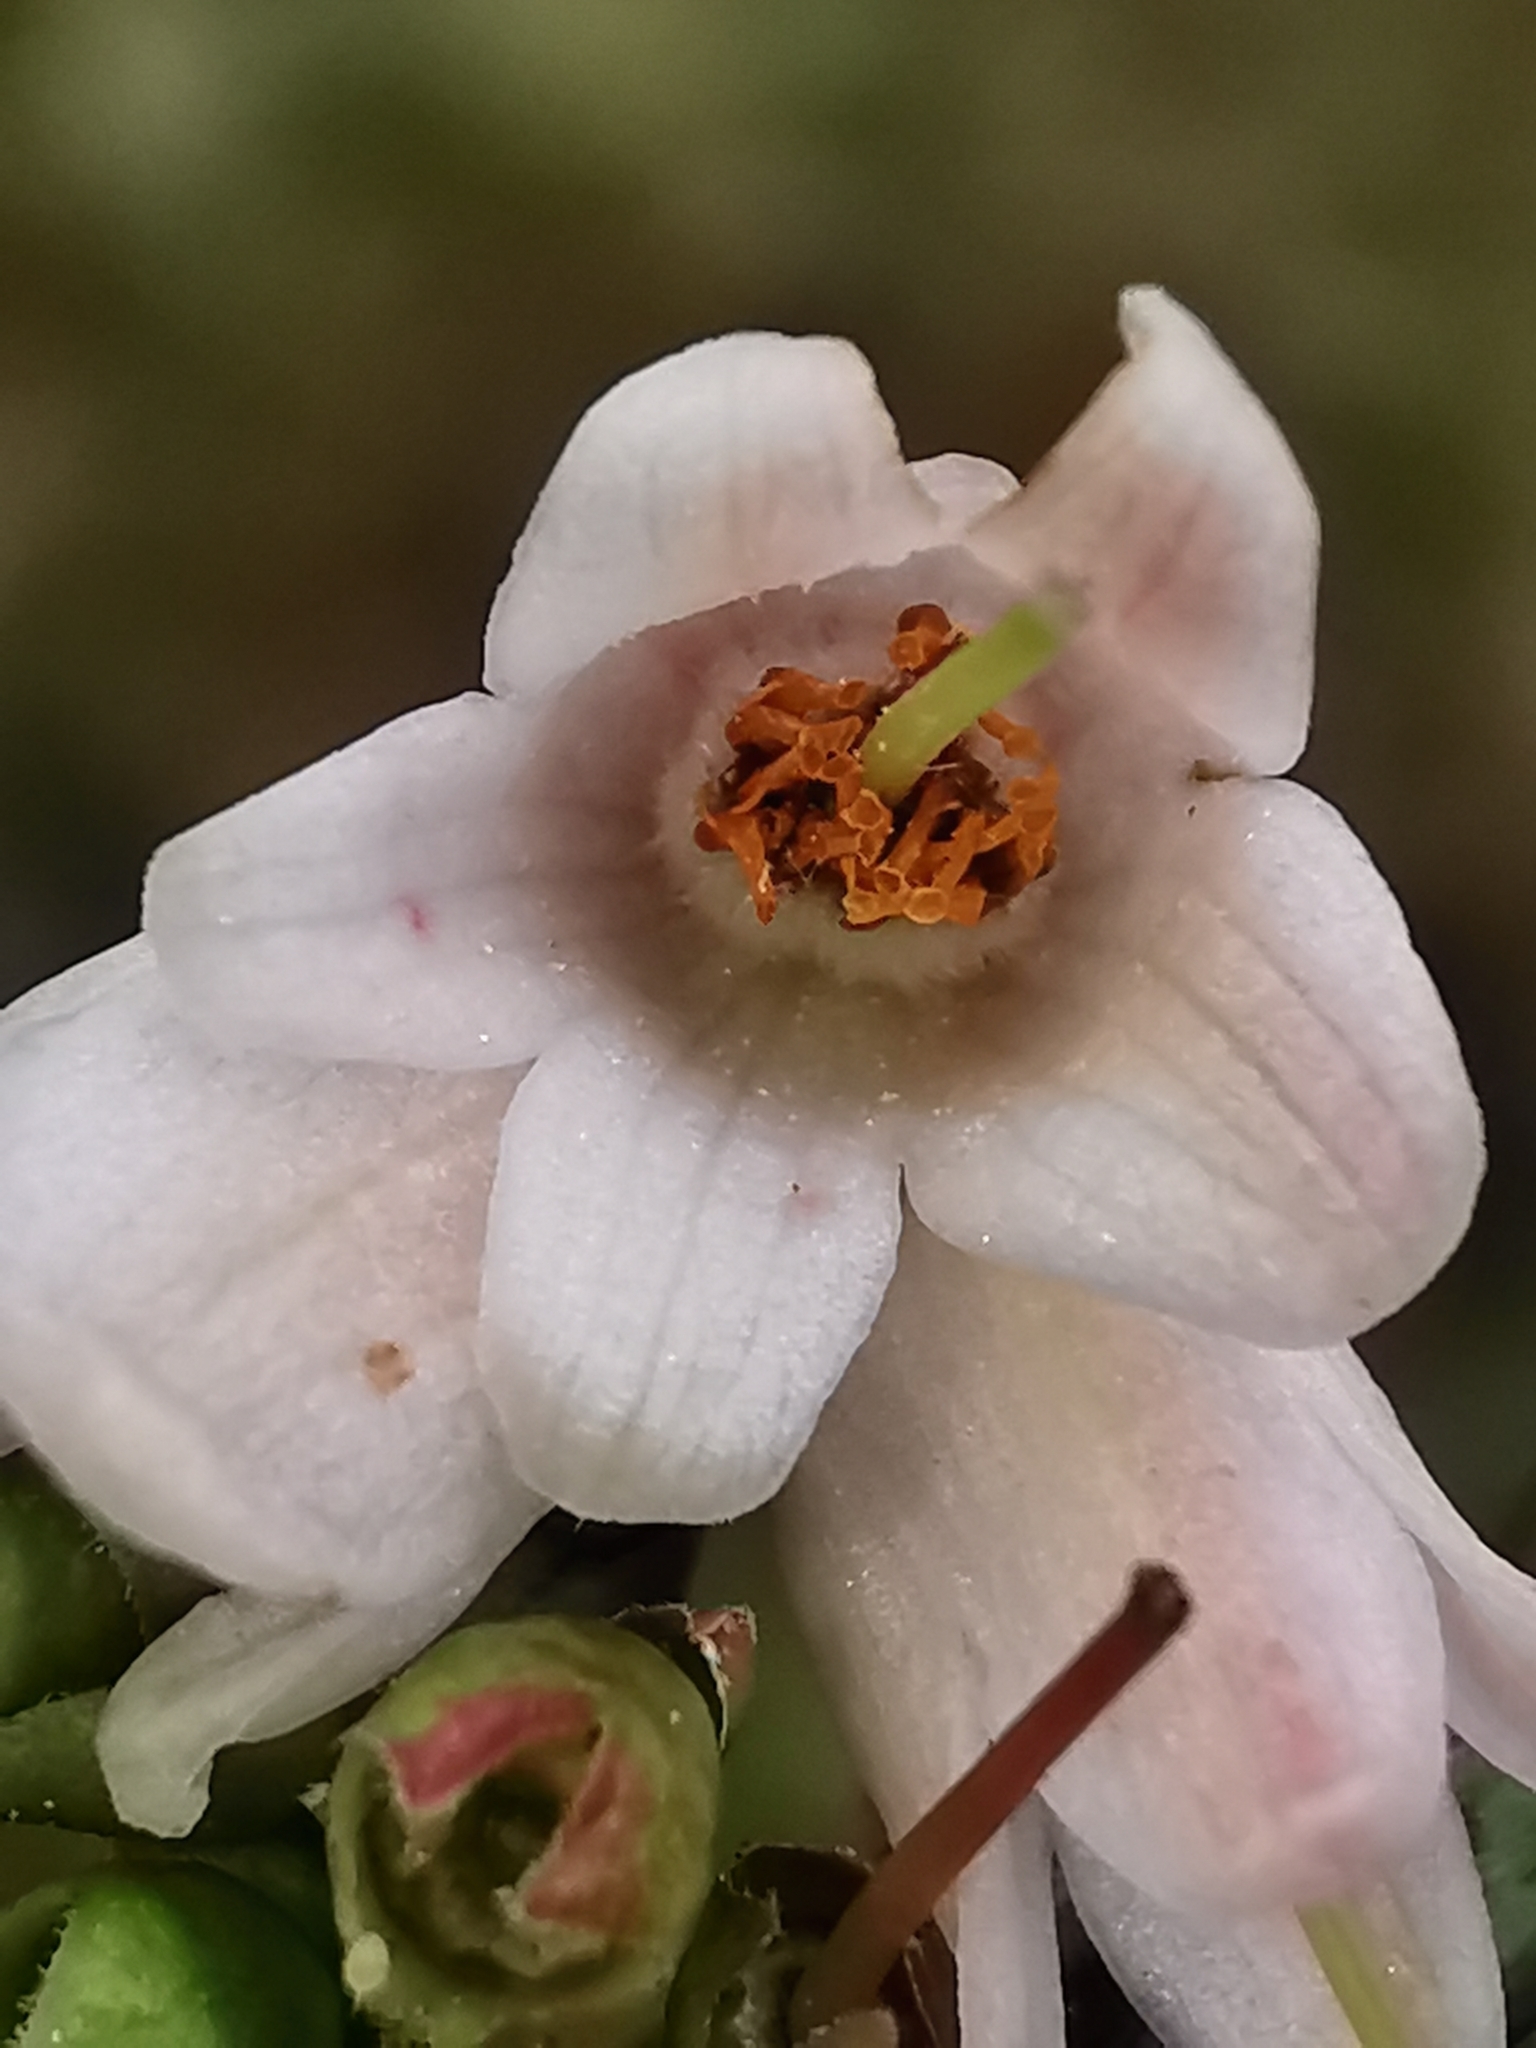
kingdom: Plantae
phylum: Tracheophyta
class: Magnoliopsida
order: Ericales
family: Ericaceae
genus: Vaccinium
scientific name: Vaccinium vitis-idaea
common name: Cowberry
